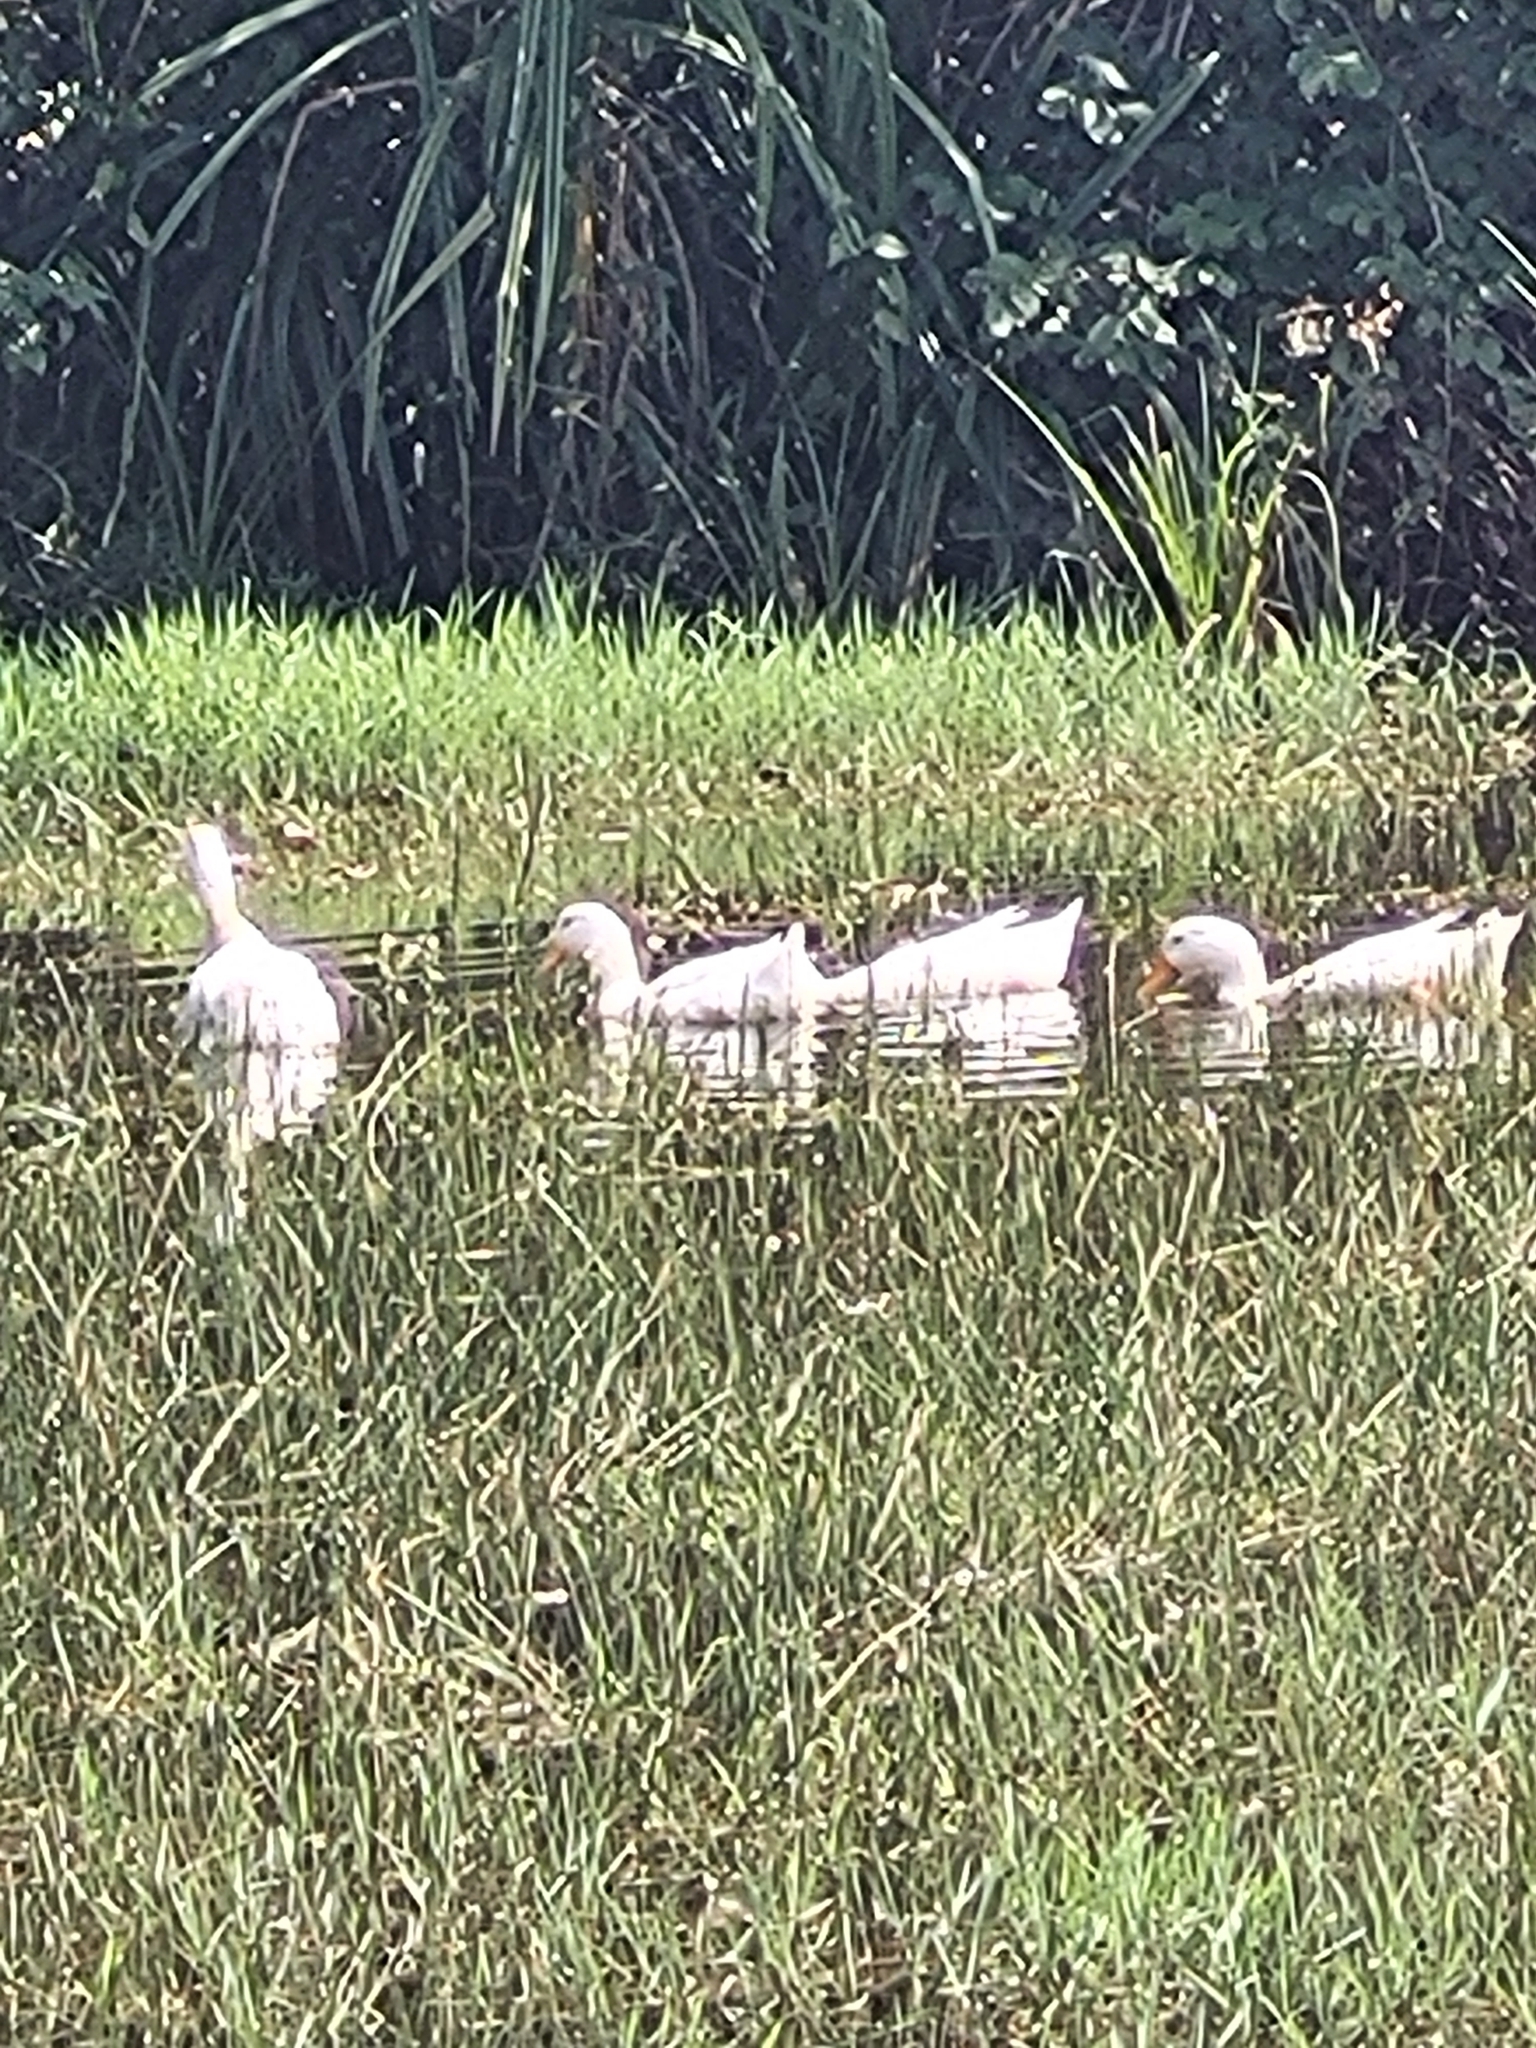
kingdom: Animalia
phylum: Chordata
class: Aves
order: Anseriformes
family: Anatidae
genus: Anas
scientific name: Anas platyrhynchos
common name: Mallard
